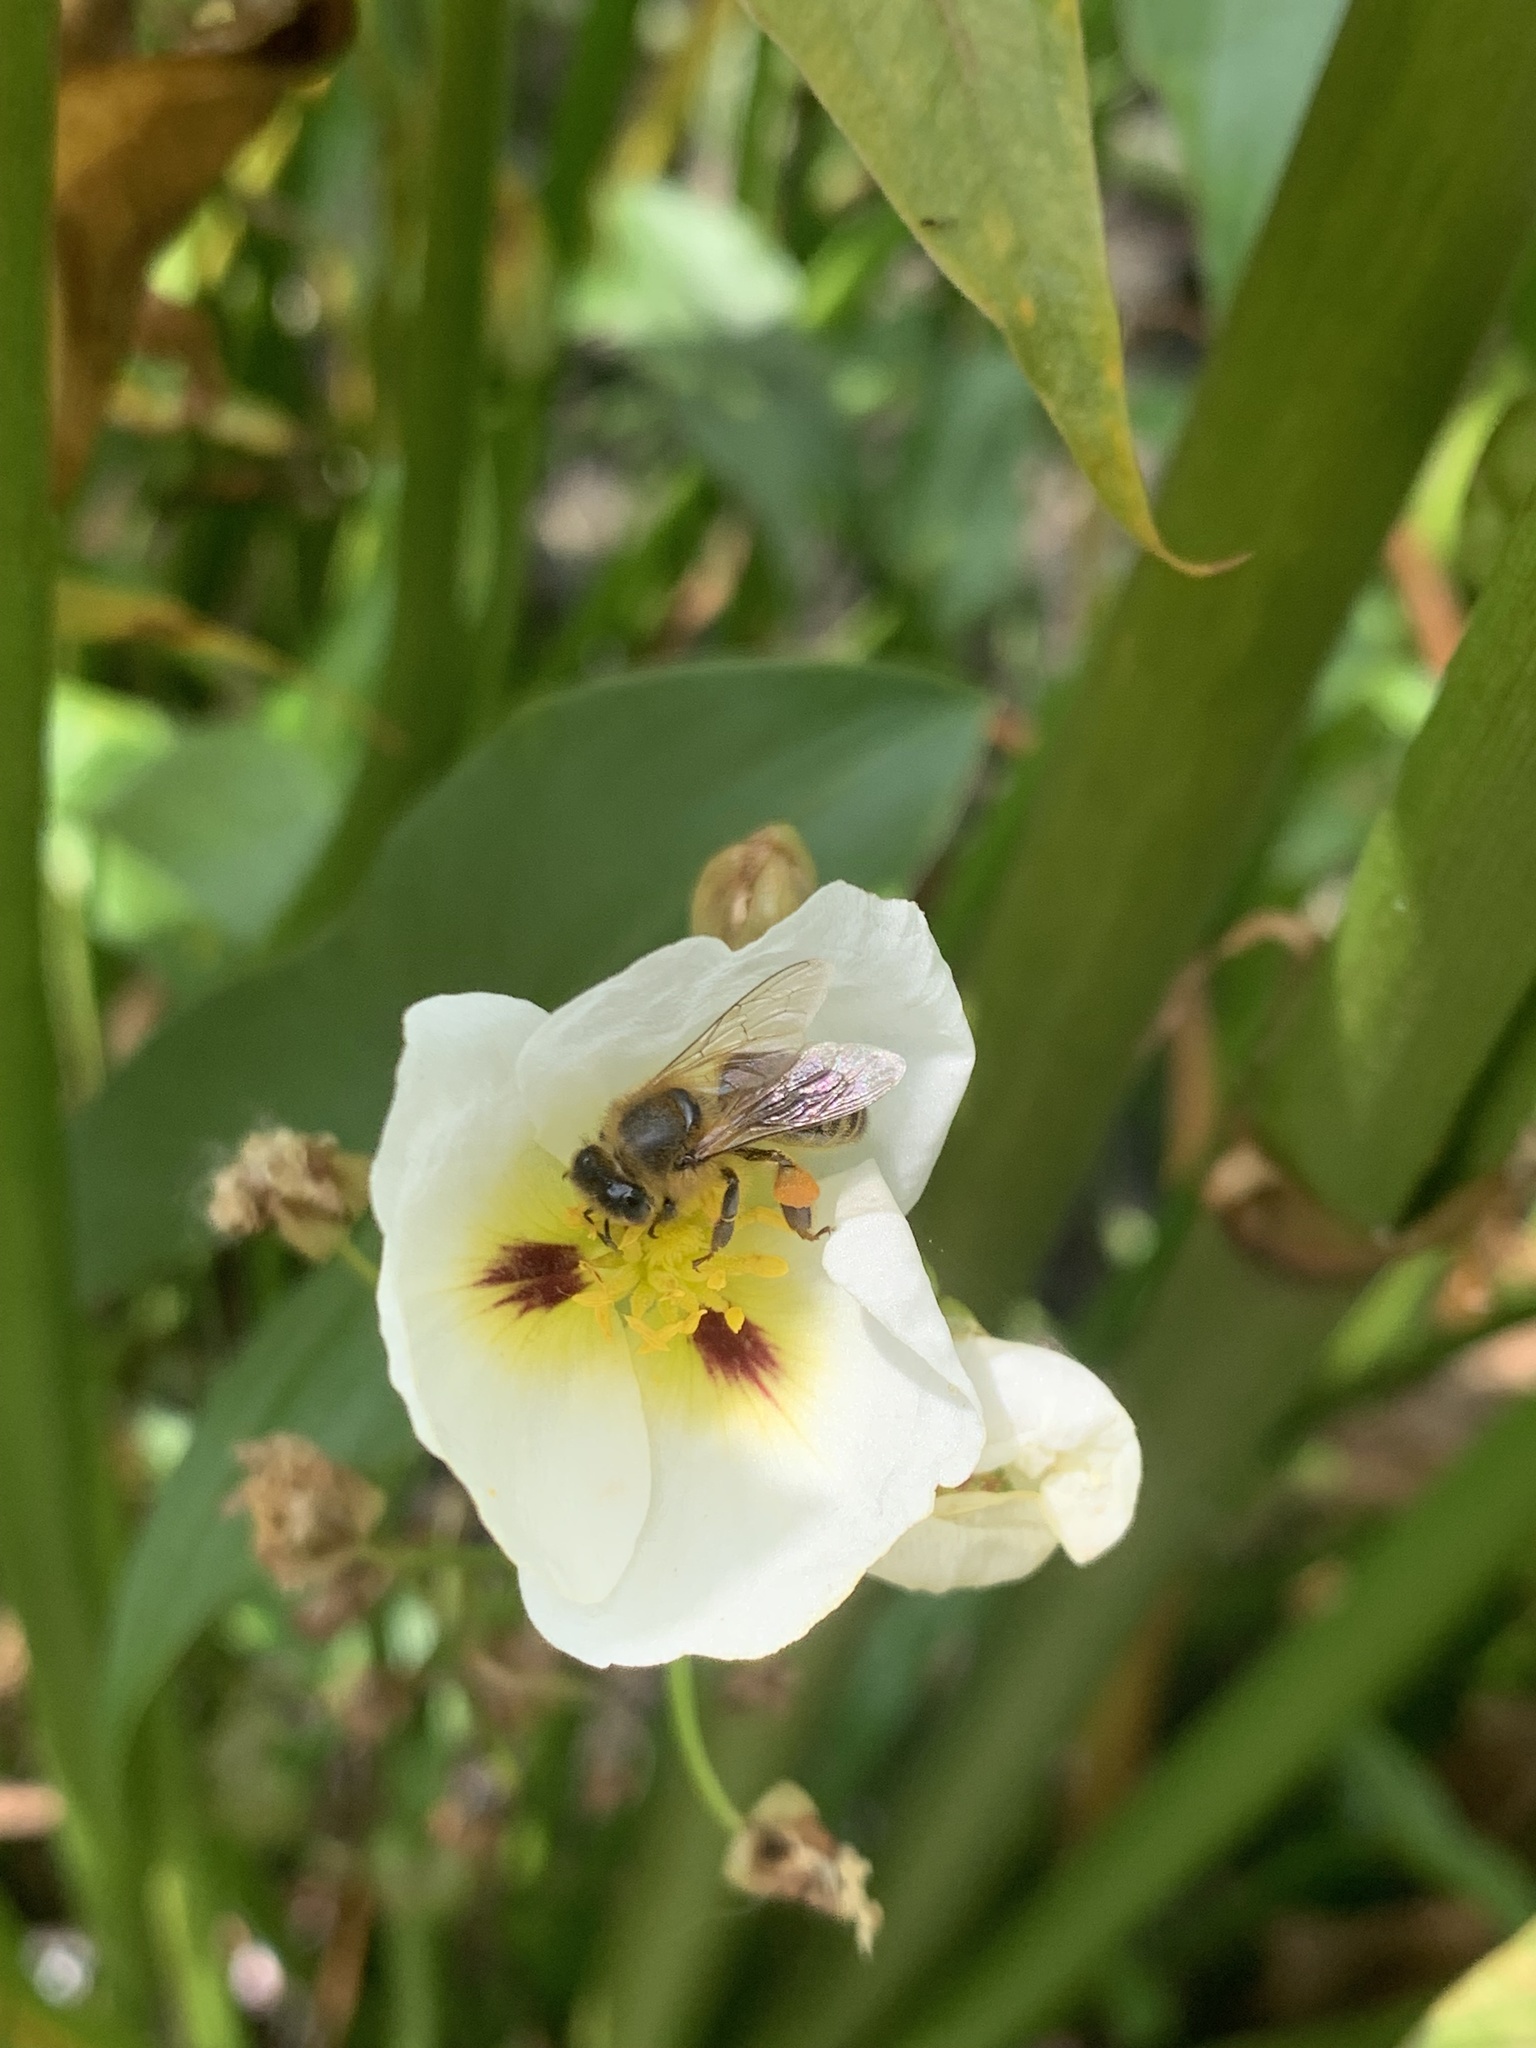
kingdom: Animalia
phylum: Arthropoda
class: Insecta
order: Hymenoptera
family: Apidae
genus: Apis
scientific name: Apis mellifera
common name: Honey bee
